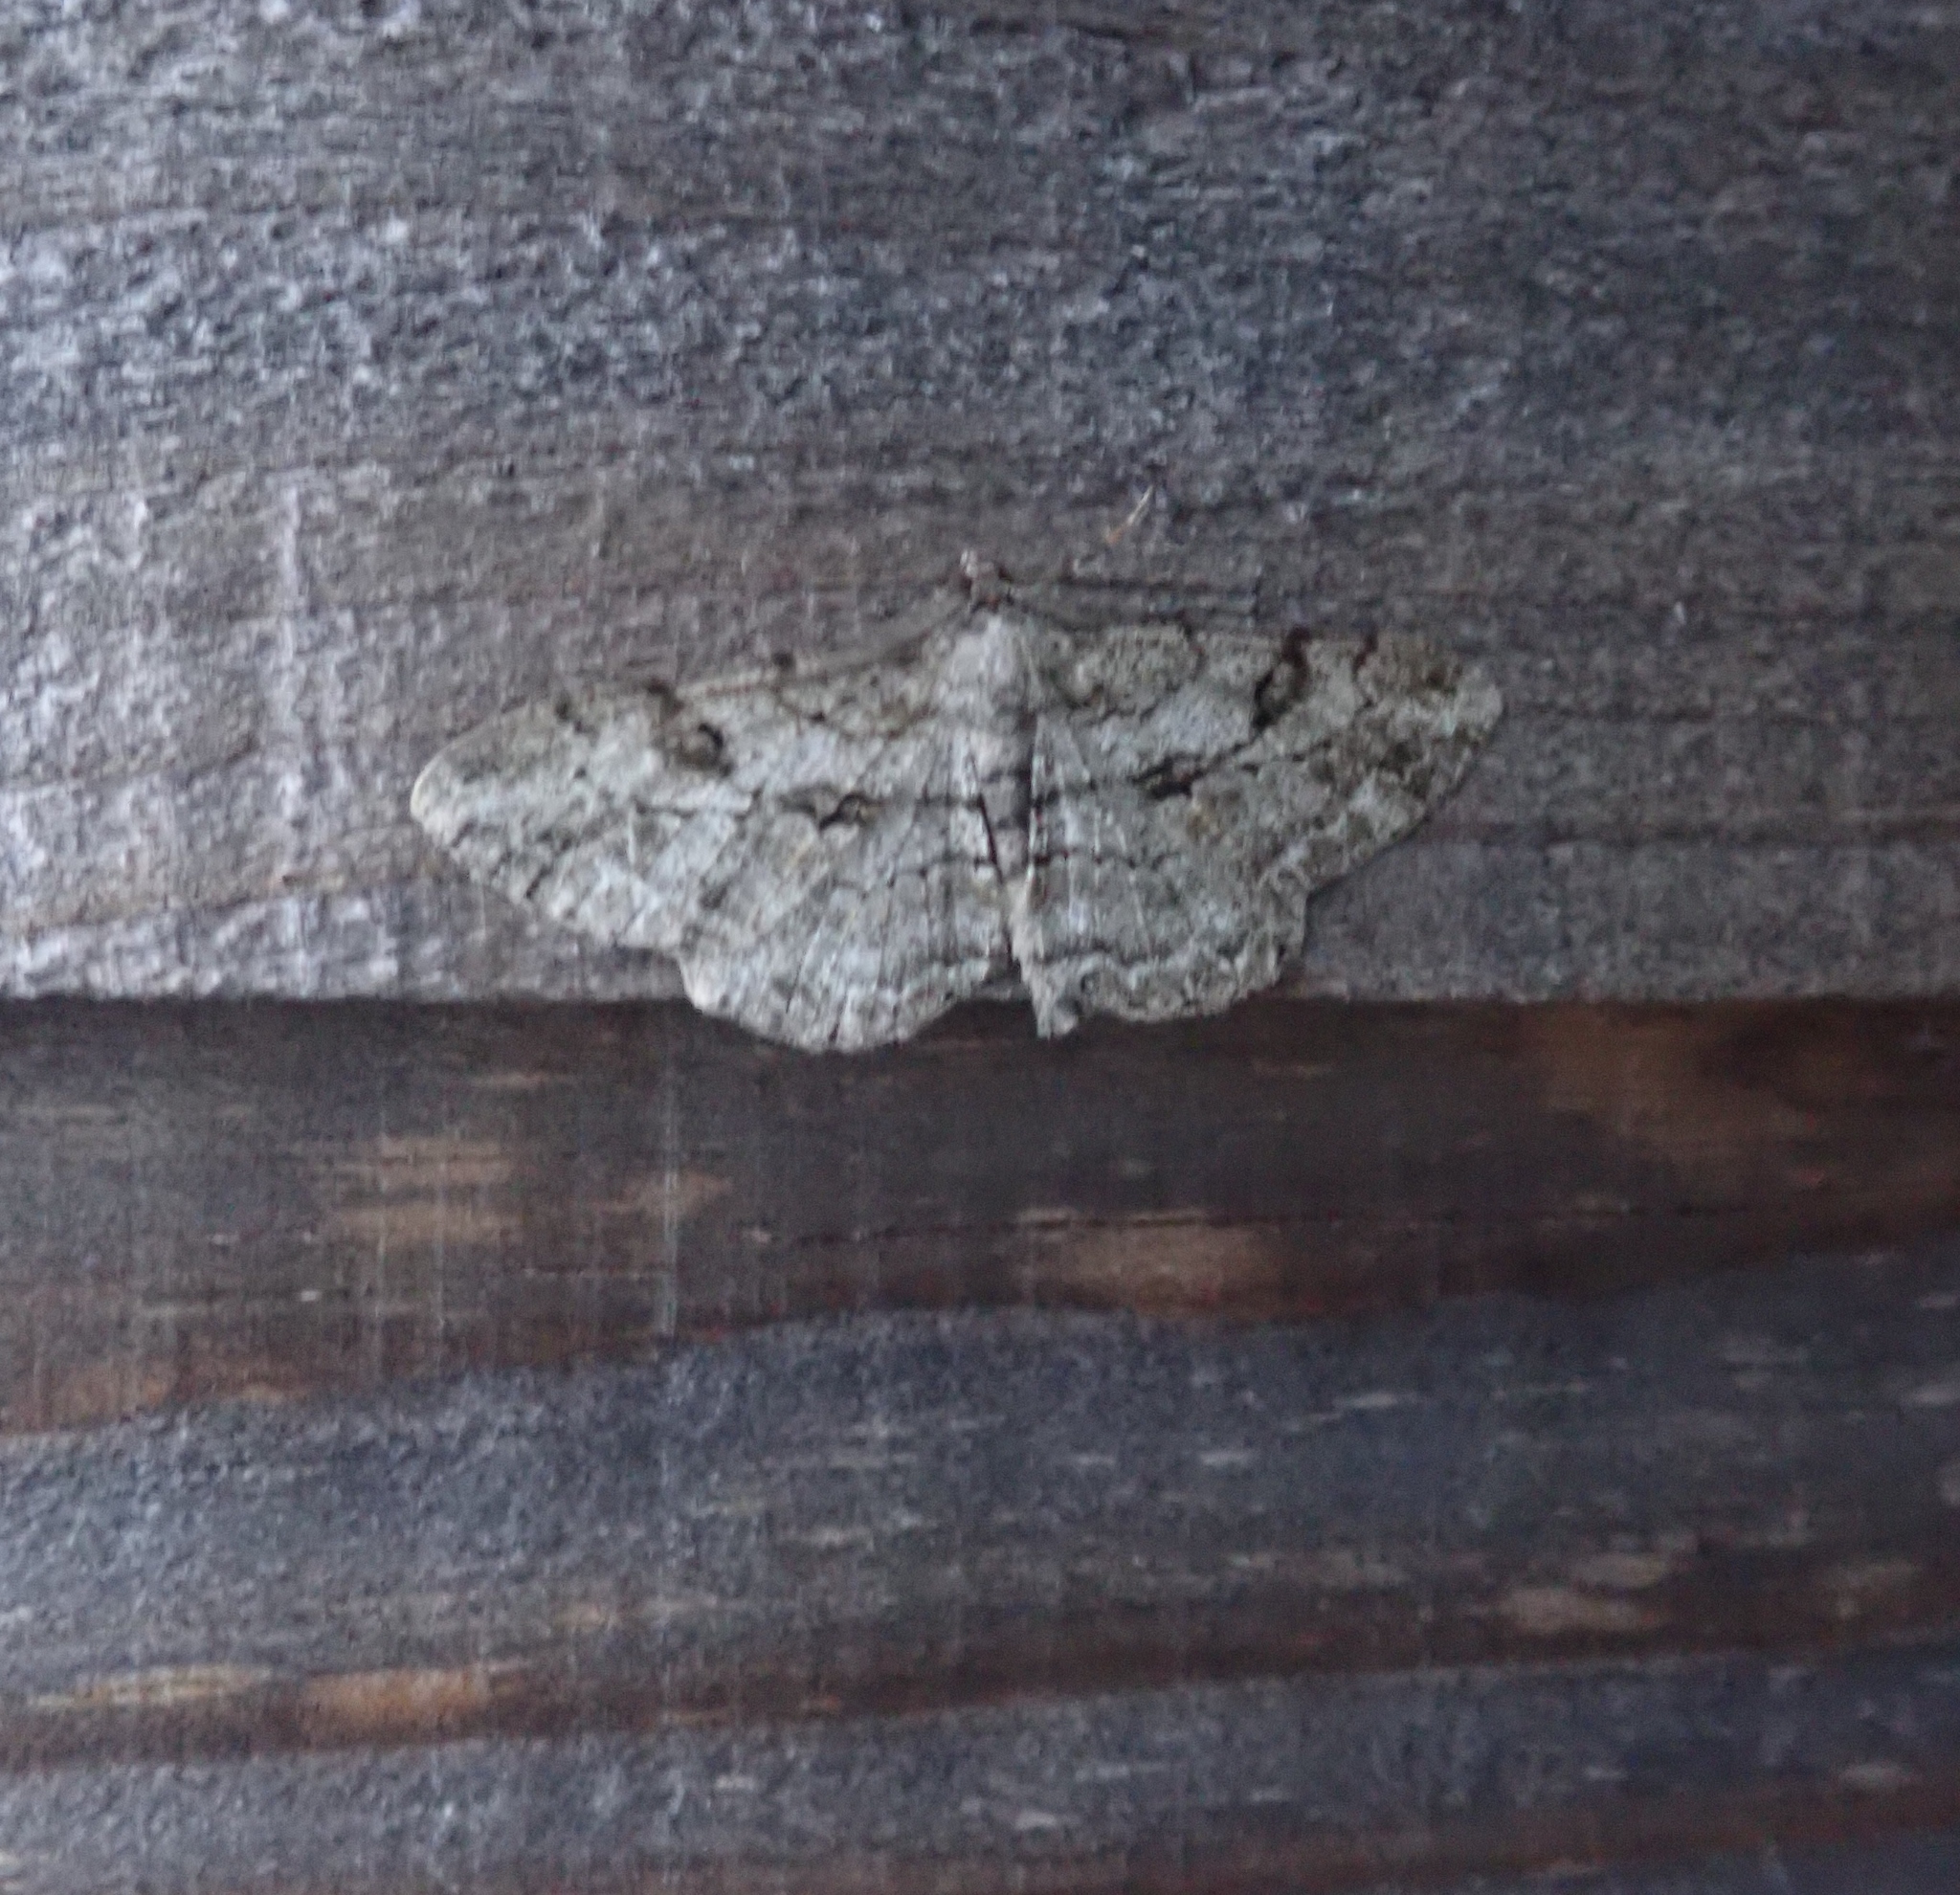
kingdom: Animalia
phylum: Arthropoda
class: Insecta
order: Lepidoptera
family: Geometridae
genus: Peribatodes
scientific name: Peribatodes rhomboidaria
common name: Willow beauty
